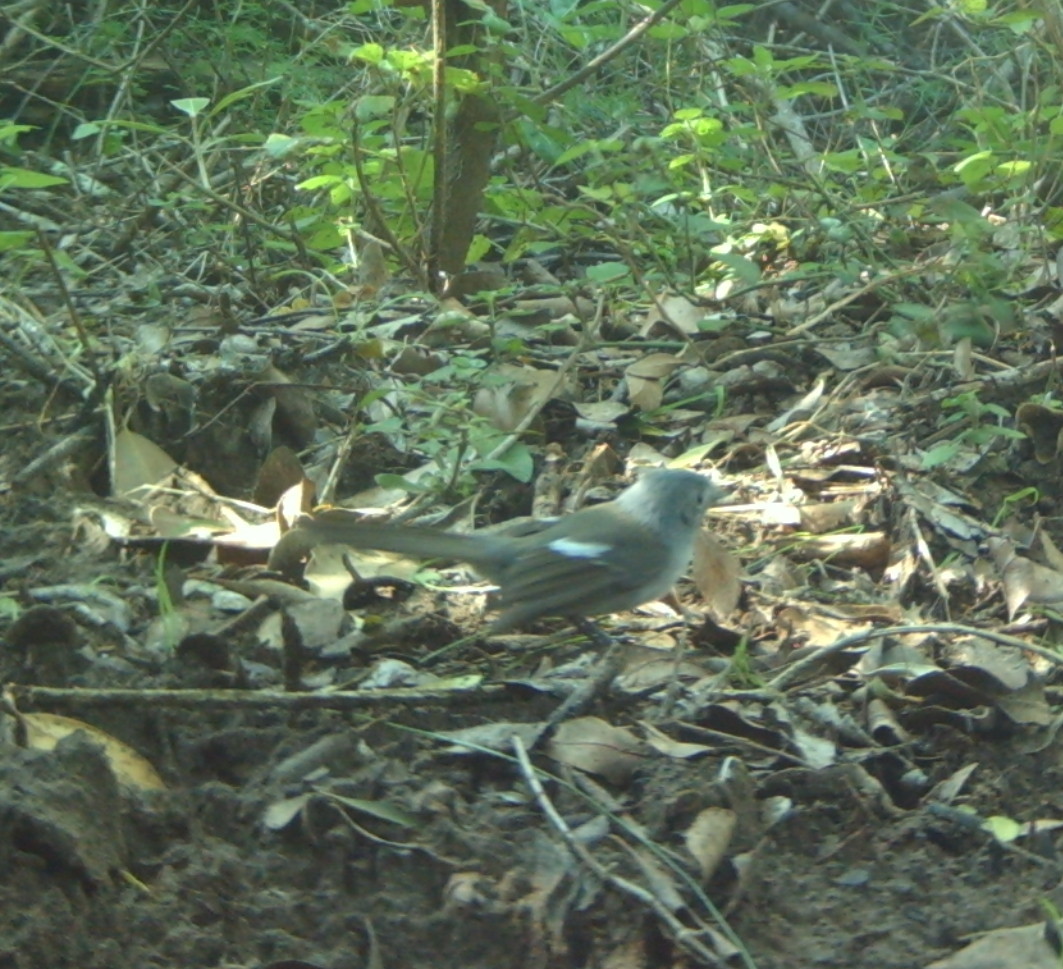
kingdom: Animalia
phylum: Chordata
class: Aves
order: Passeriformes
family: Monarchidae
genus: Trochocercus
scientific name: Trochocercus cyanomelas
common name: Blue-mantled crested flycatcher
